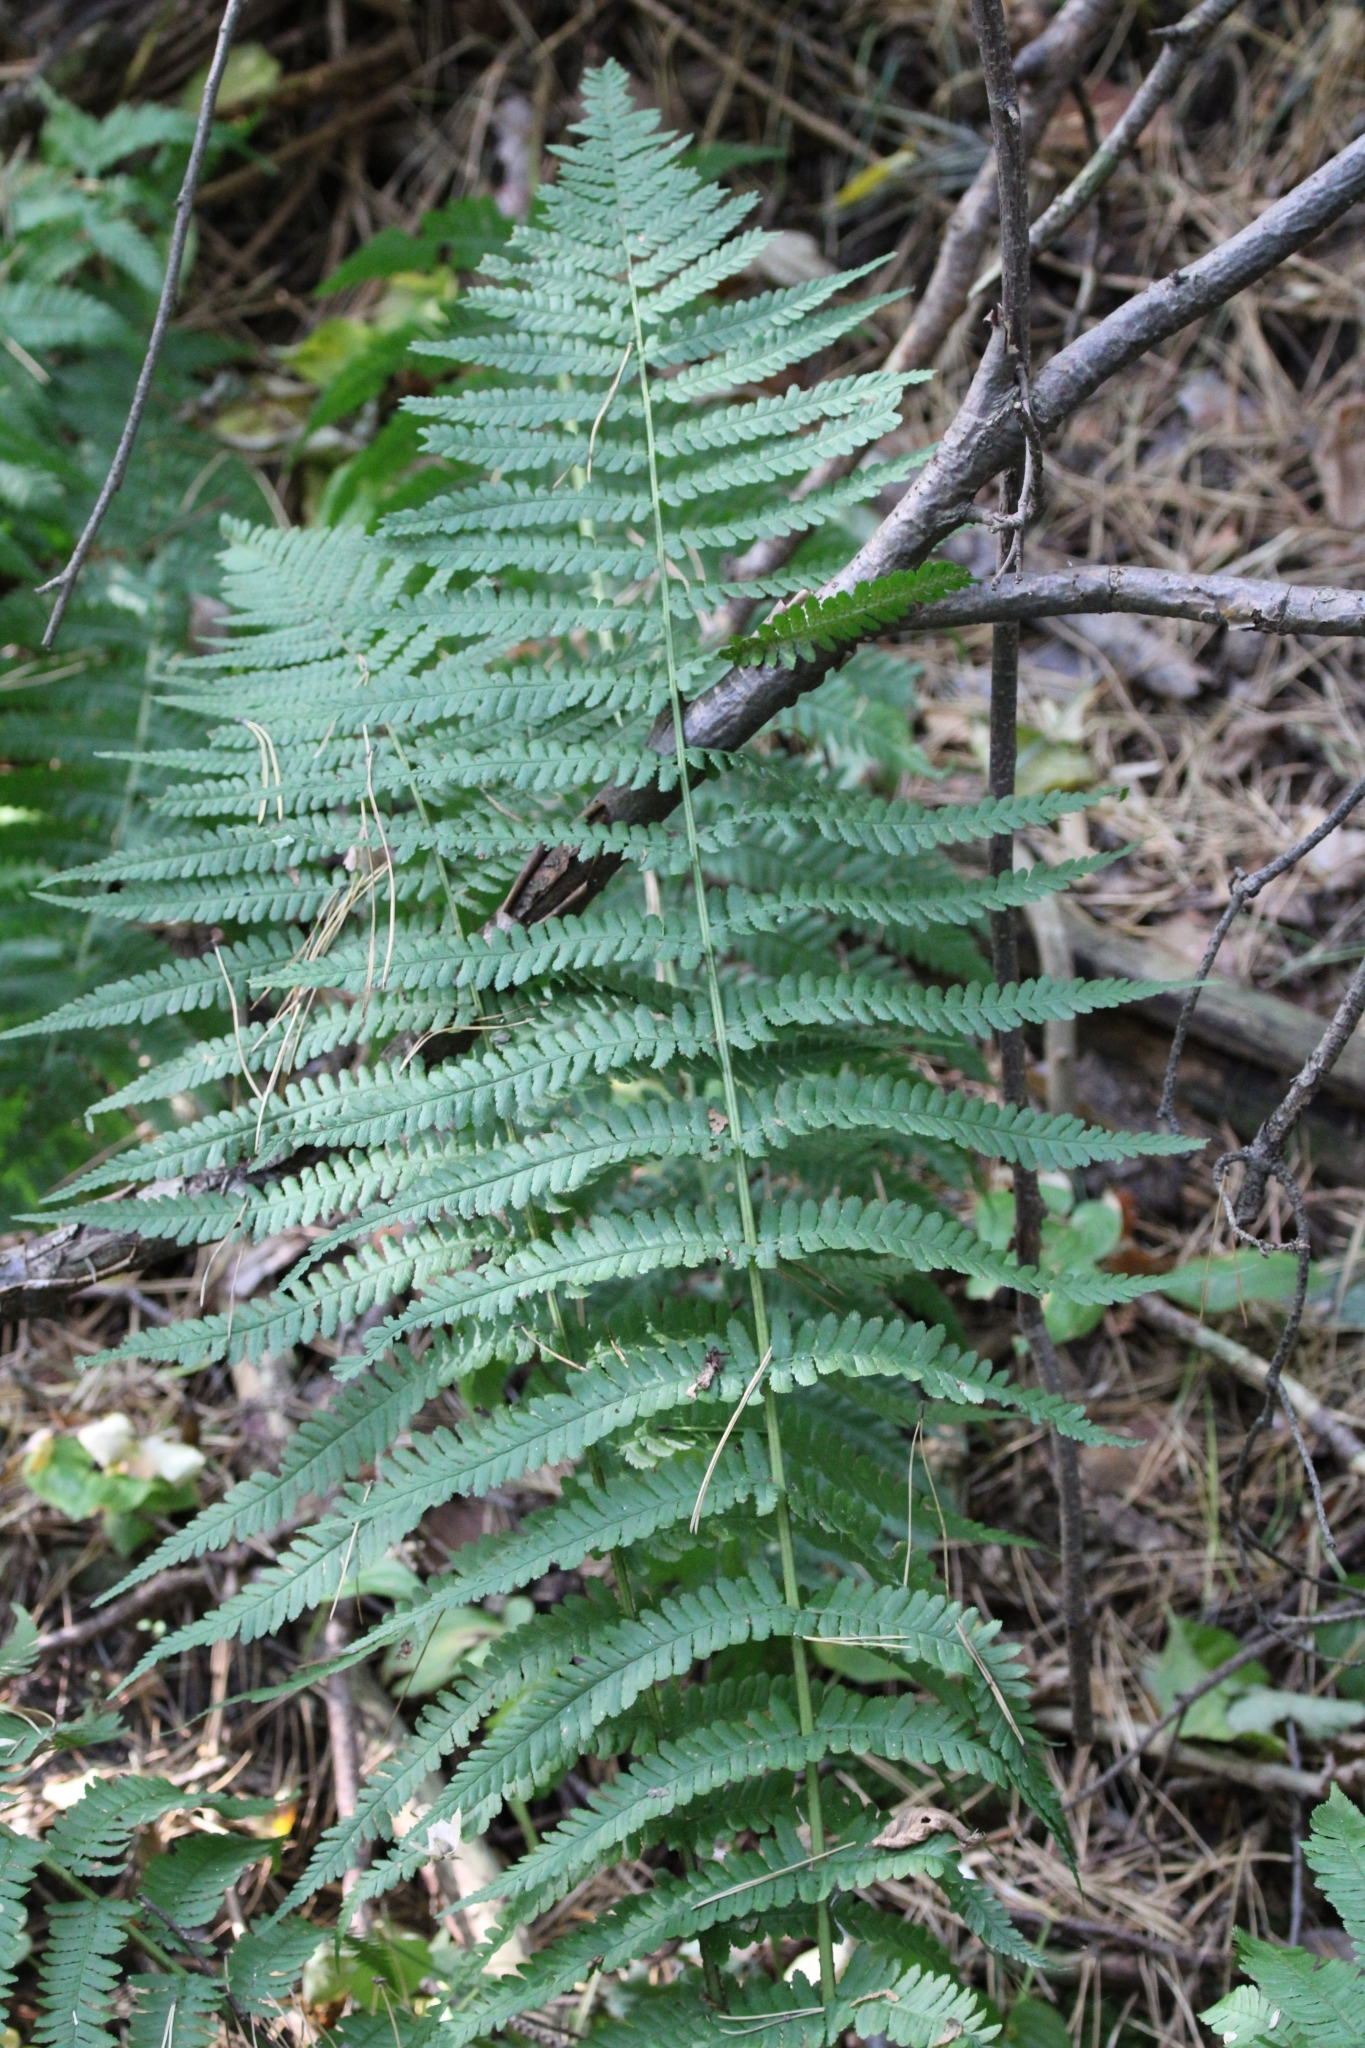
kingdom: Plantae
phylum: Tracheophyta
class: Polypodiopsida
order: Polypodiales
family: Dryopteridaceae
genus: Dryopteris
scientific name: Dryopteris filix-mas
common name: Male fern
